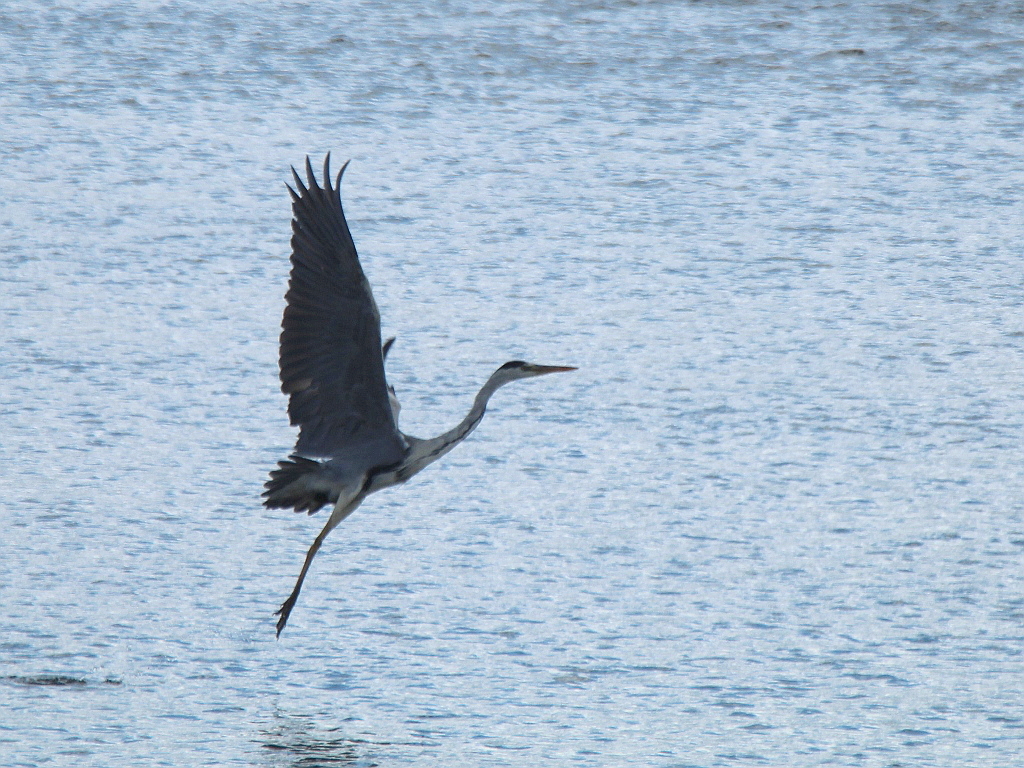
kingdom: Animalia
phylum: Chordata
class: Aves
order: Pelecaniformes
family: Ardeidae
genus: Ardea
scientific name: Ardea cinerea
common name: Grey heron
